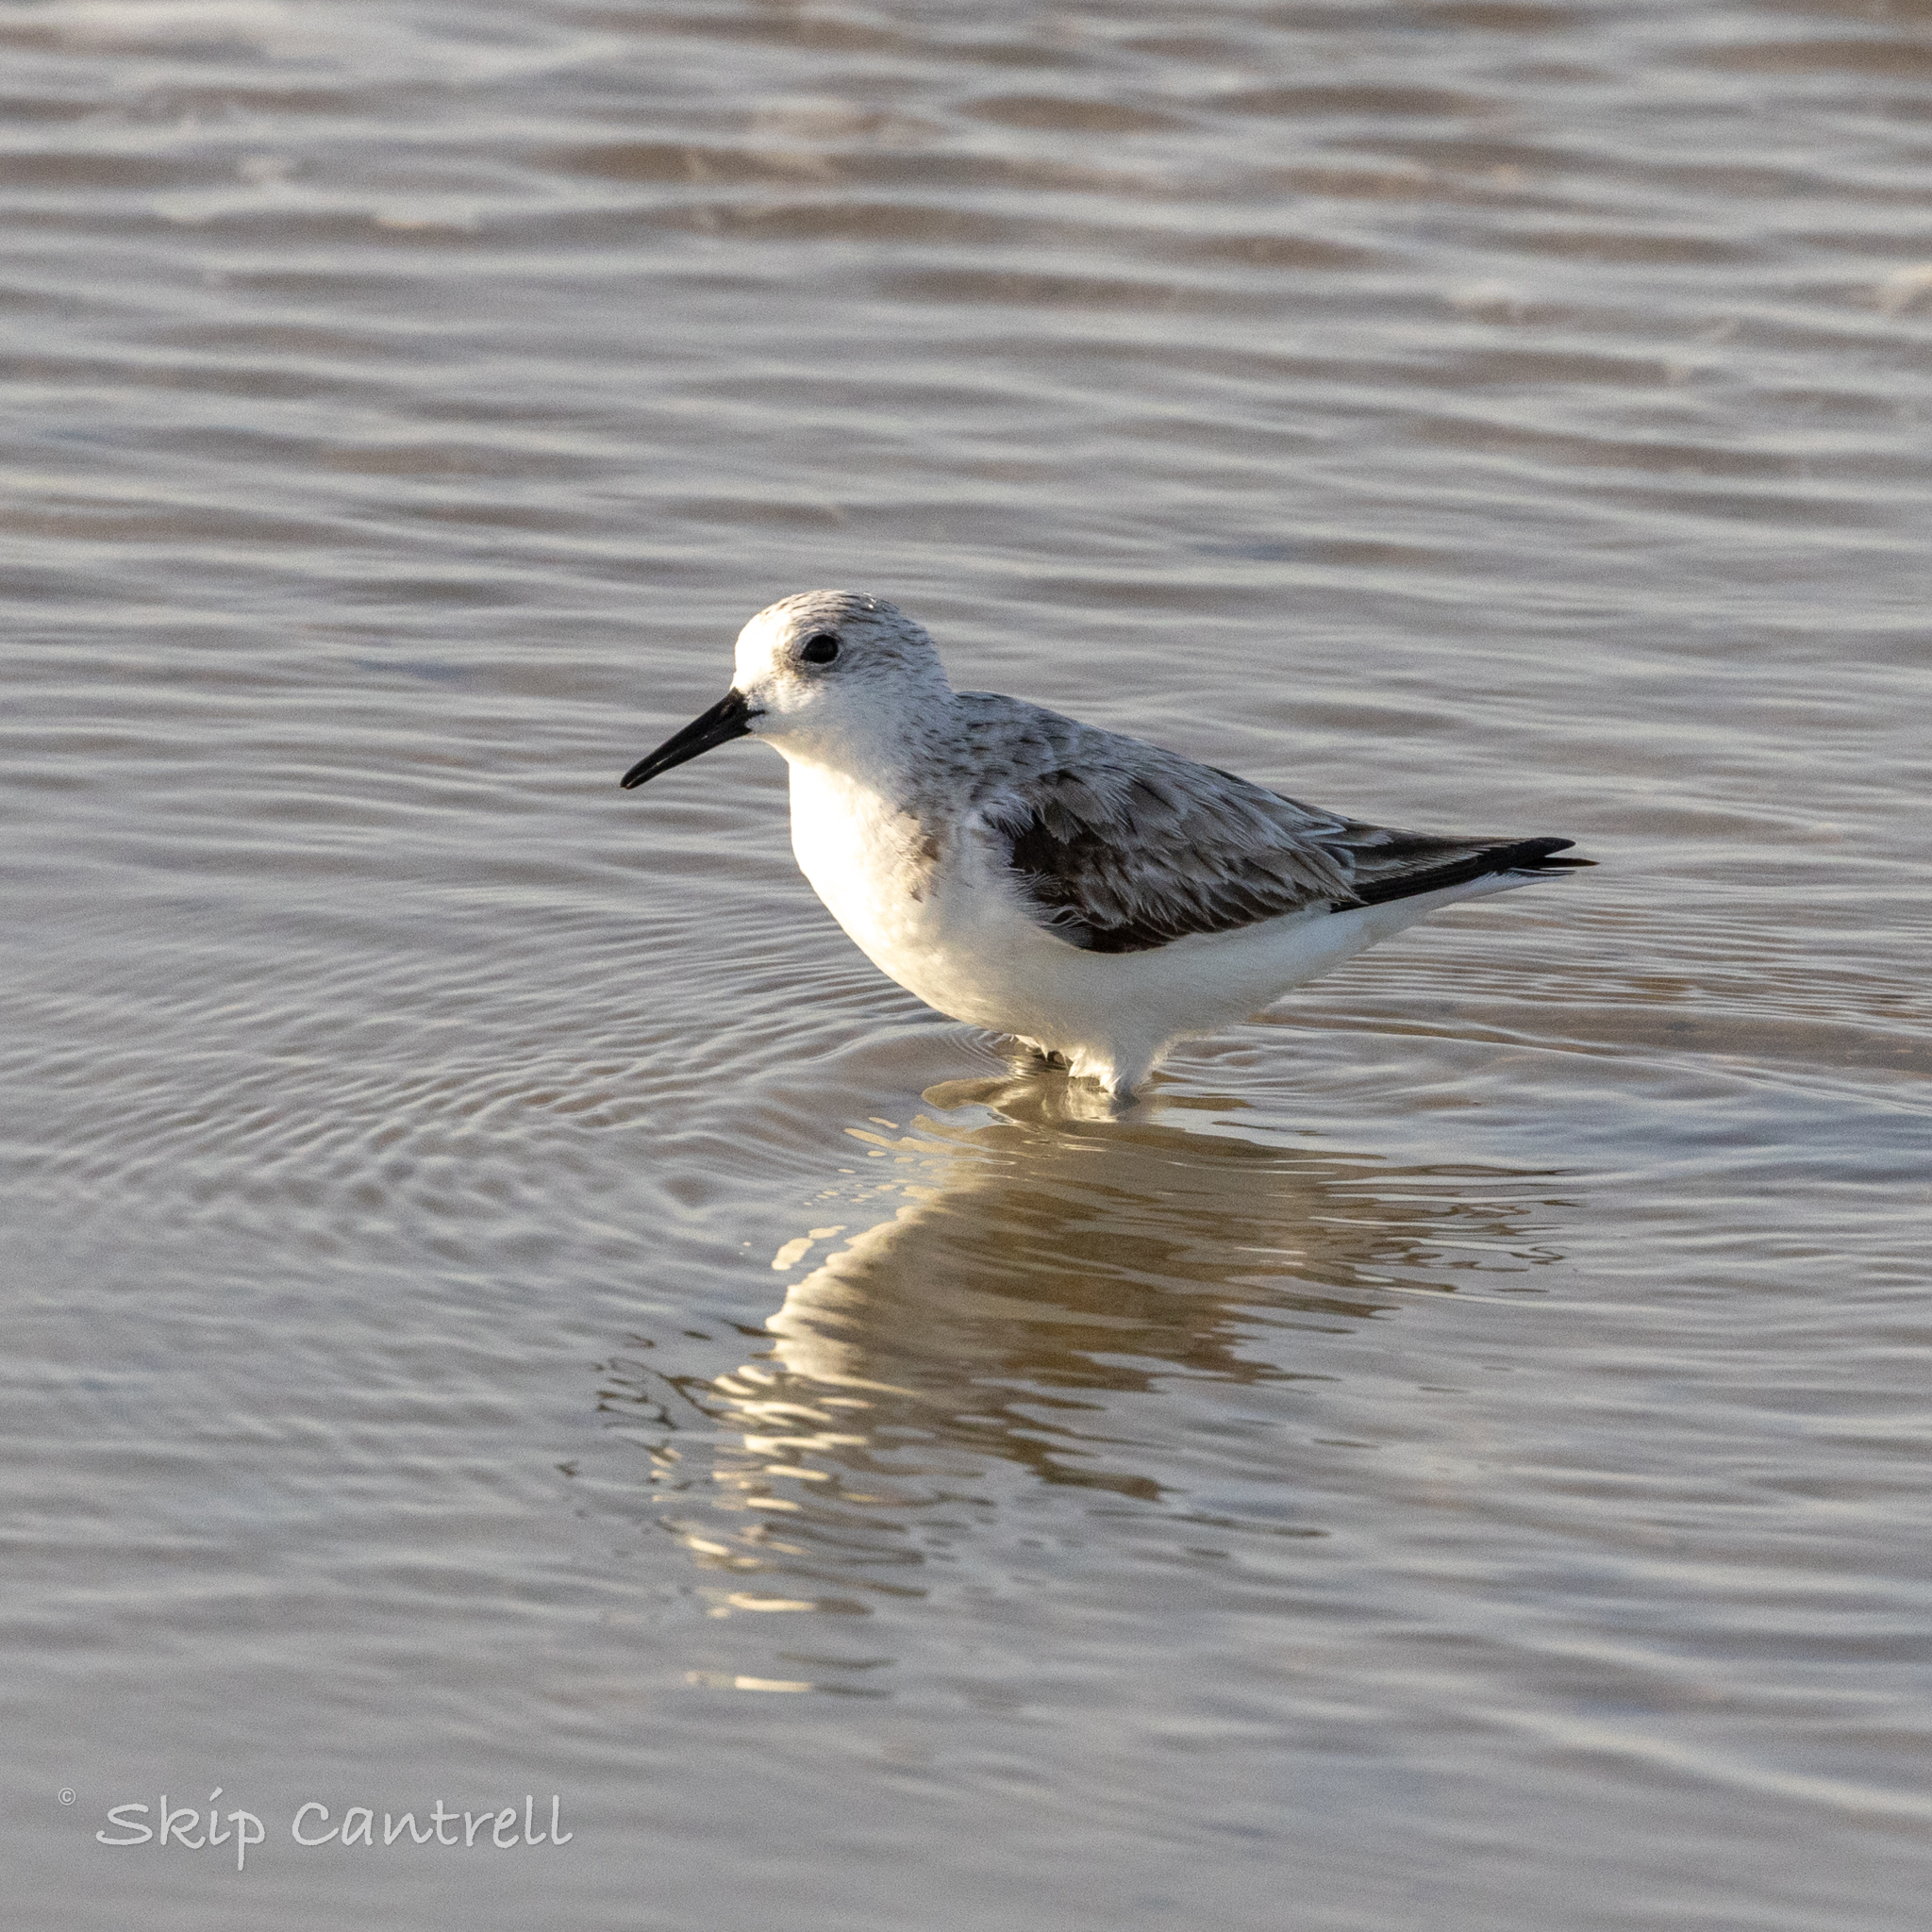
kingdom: Animalia
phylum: Chordata
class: Aves
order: Charadriiformes
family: Scolopacidae
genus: Calidris
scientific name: Calidris alba
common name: Sanderling
